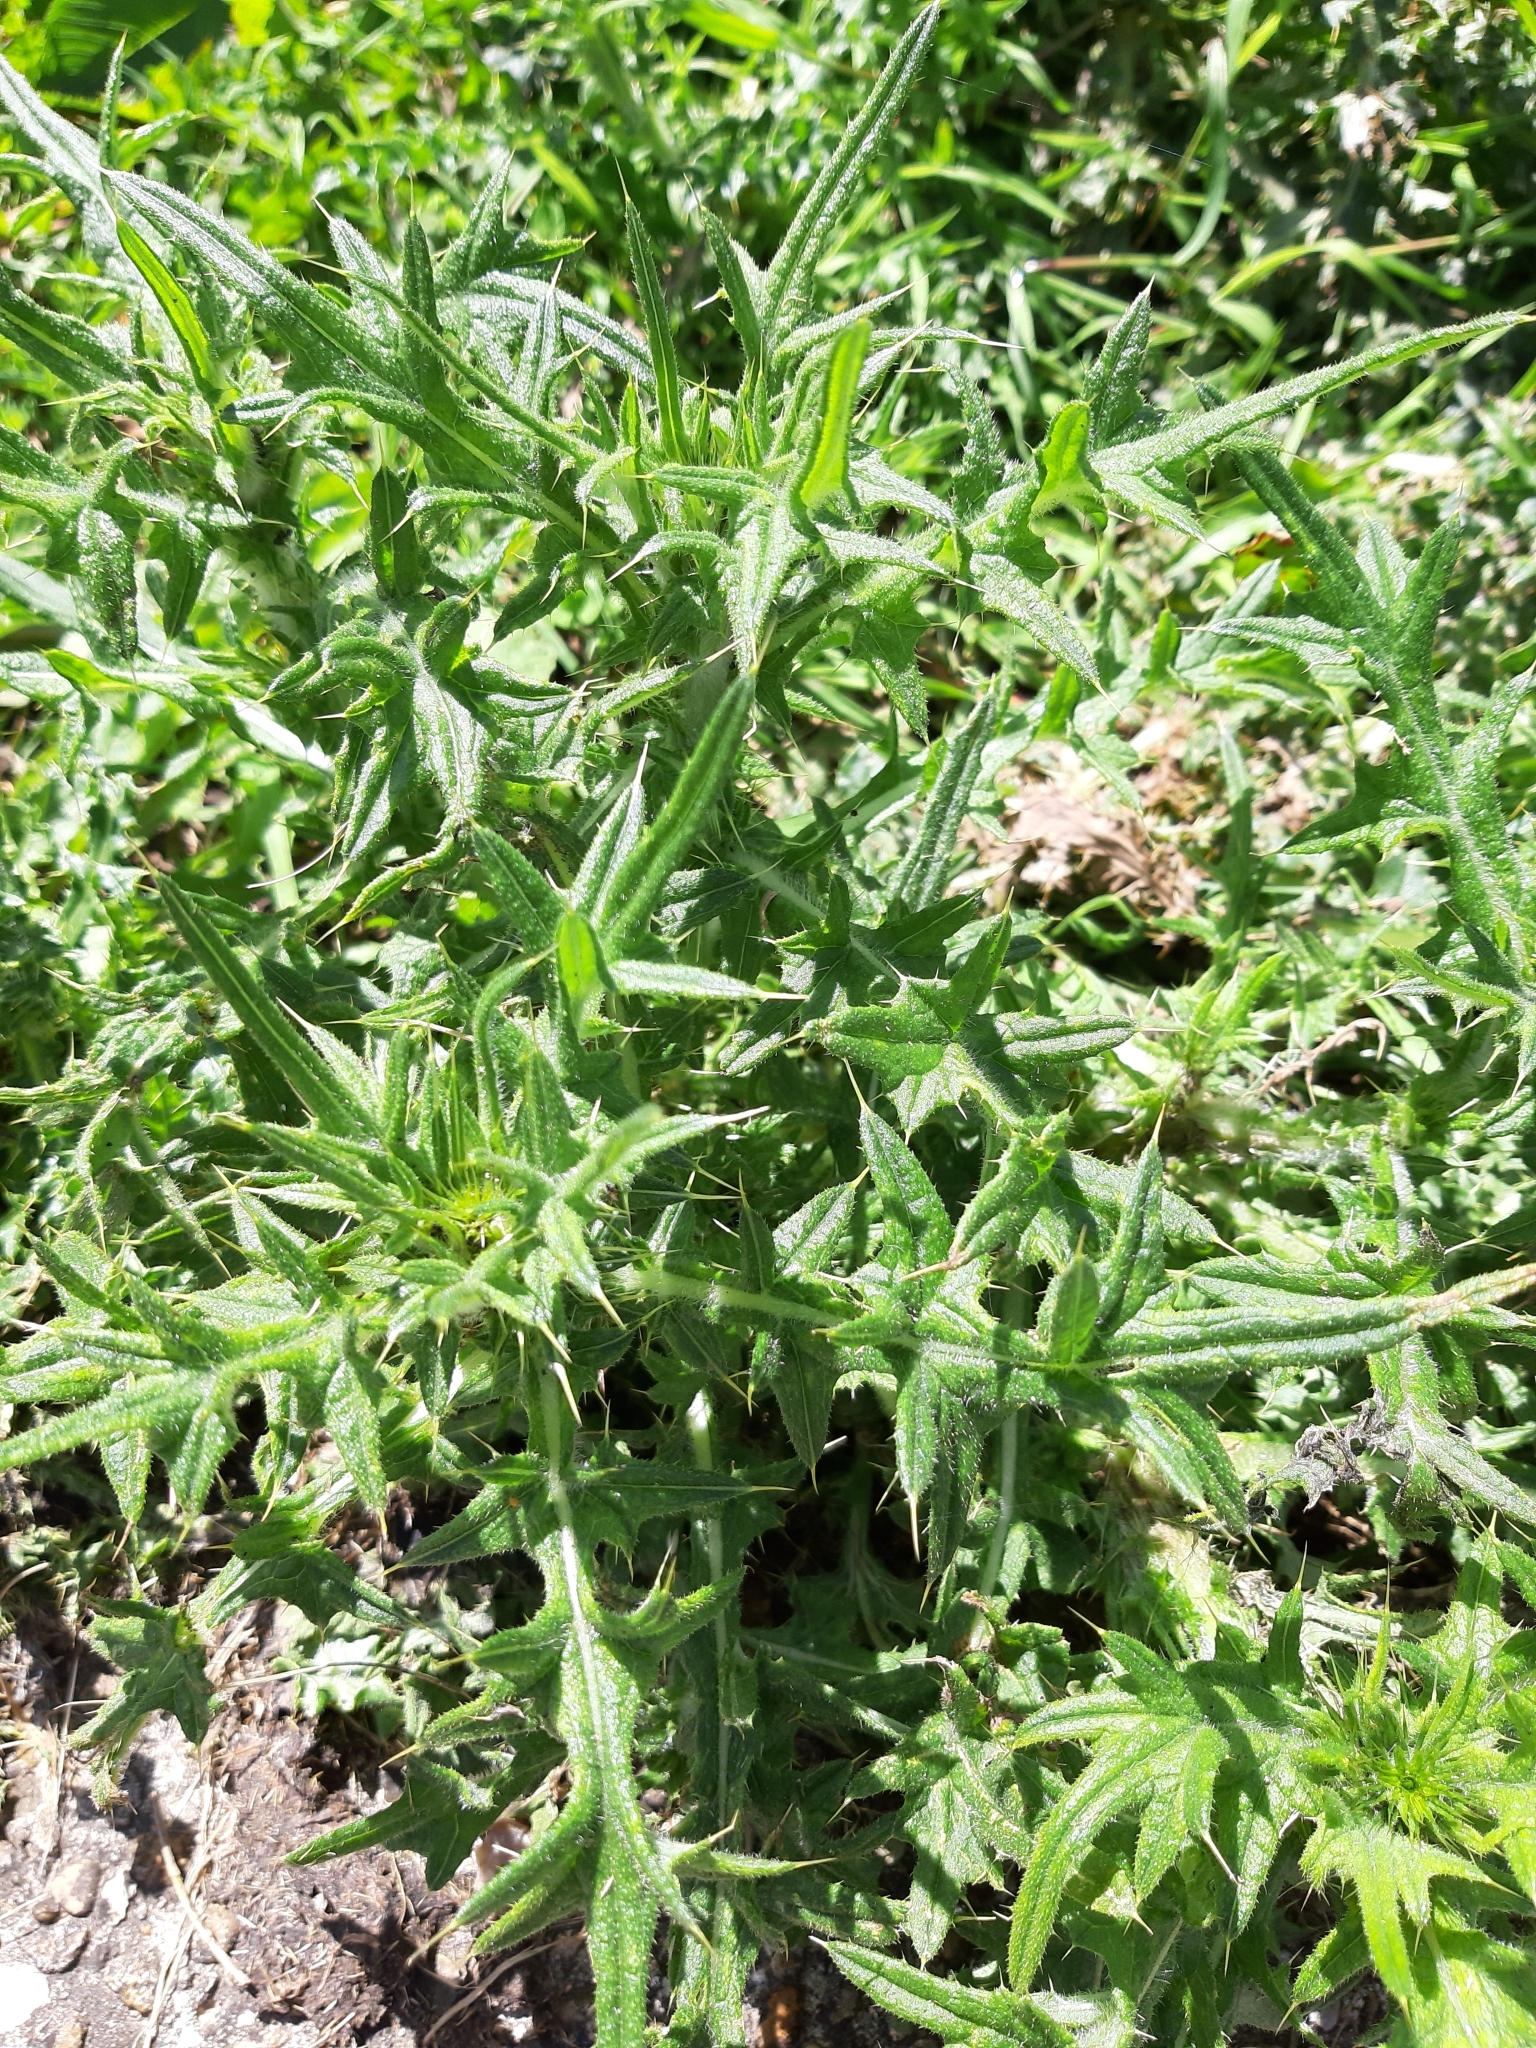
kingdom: Plantae
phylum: Tracheophyta
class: Magnoliopsida
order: Asterales
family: Asteraceae
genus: Cirsium
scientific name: Cirsium vulgare
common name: Bull thistle
